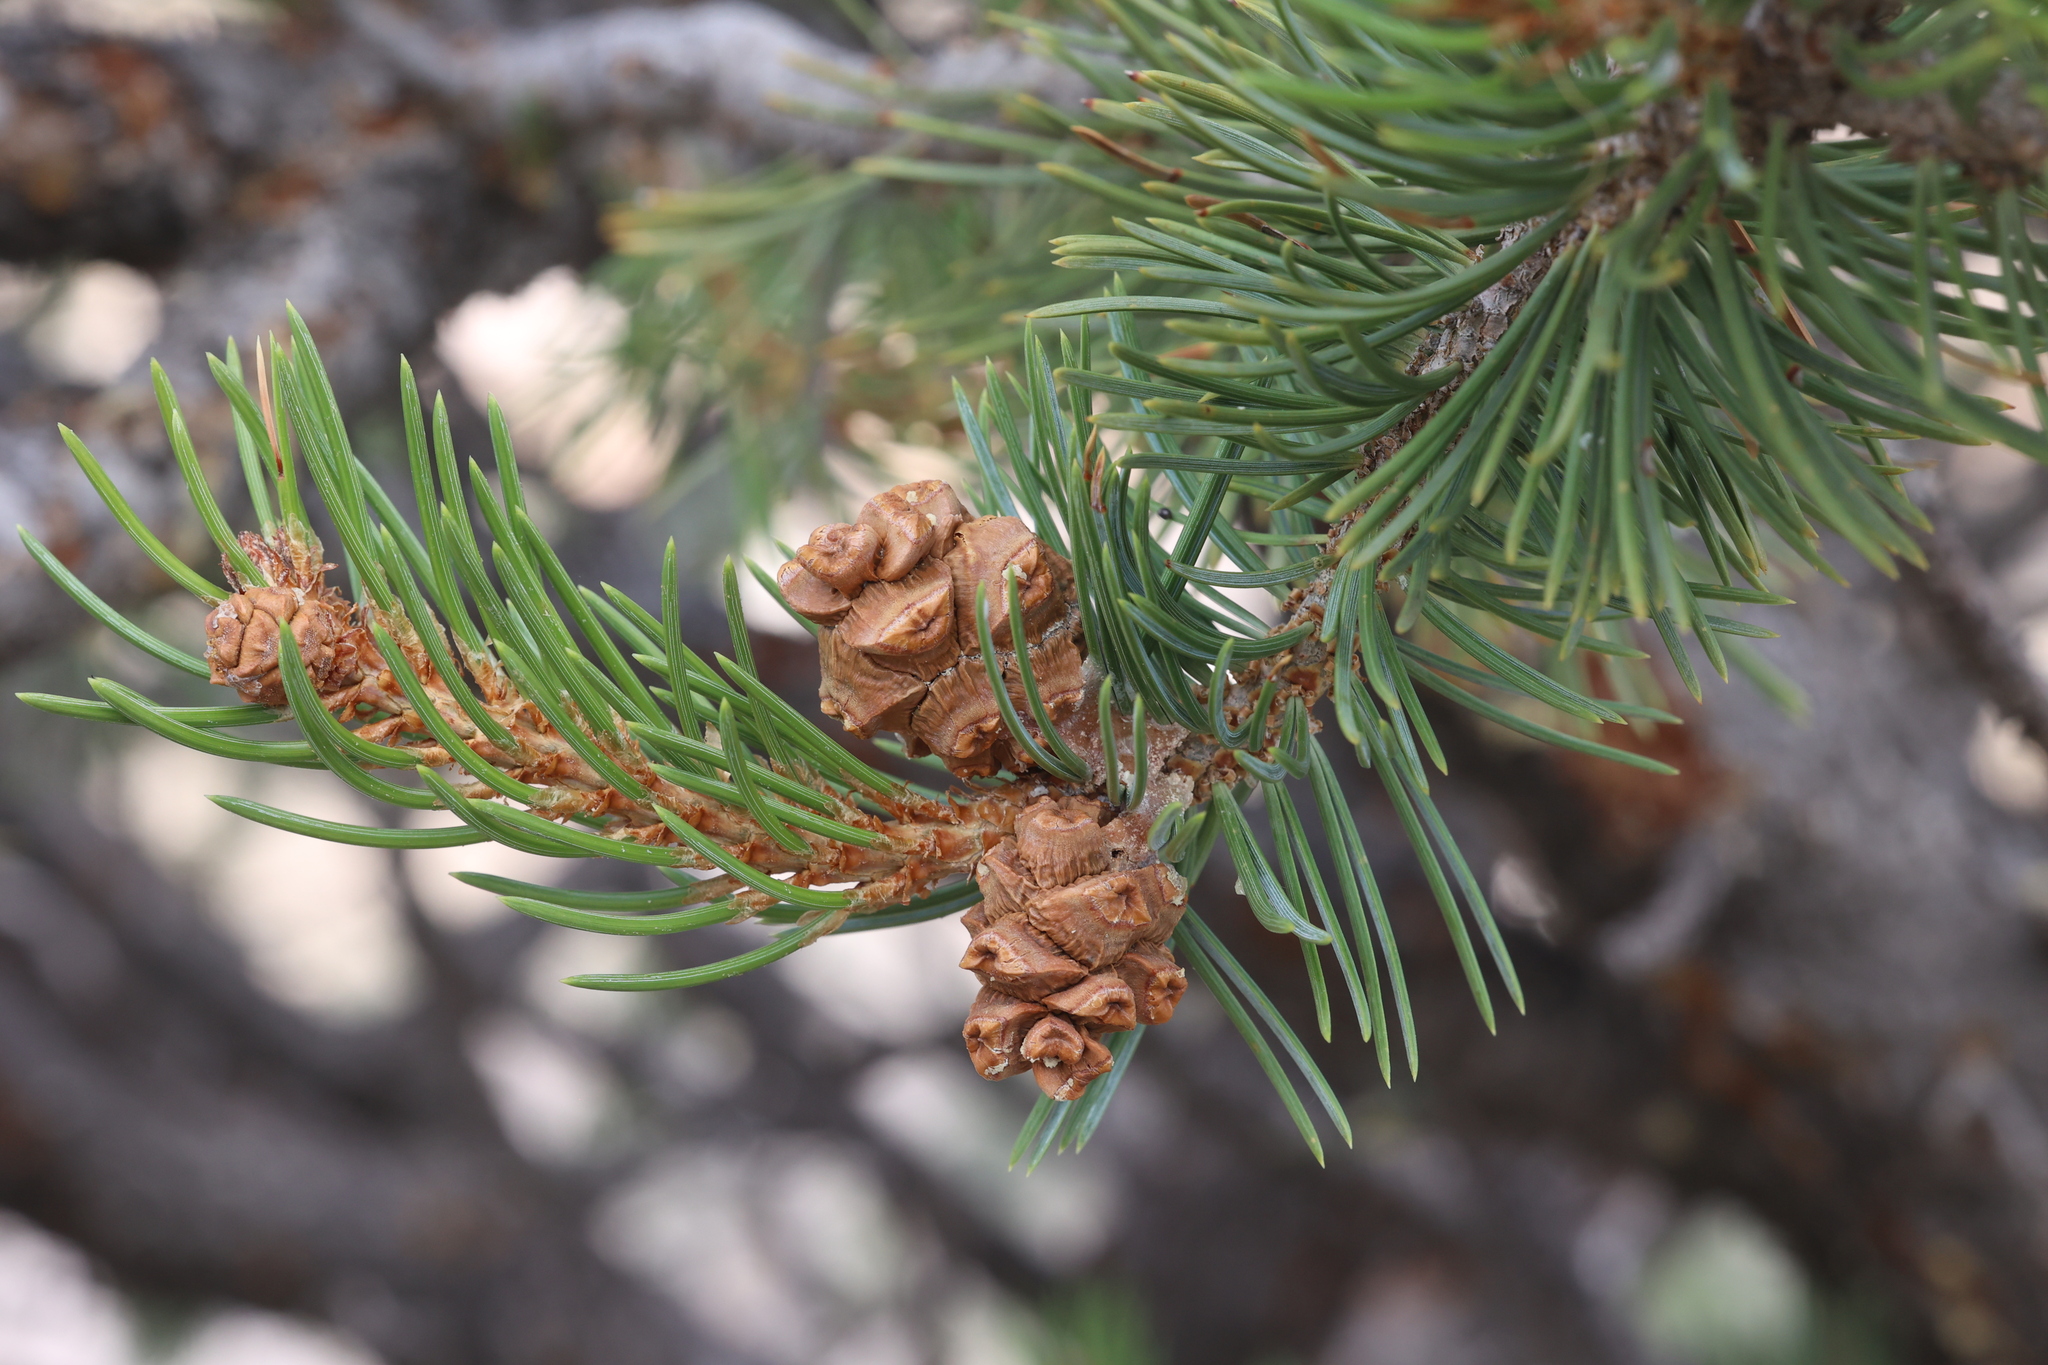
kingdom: Plantae
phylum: Tracheophyta
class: Pinopsida
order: Pinales
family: Pinaceae
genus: Pinus
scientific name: Pinus edulis
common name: Colorado pinyon
